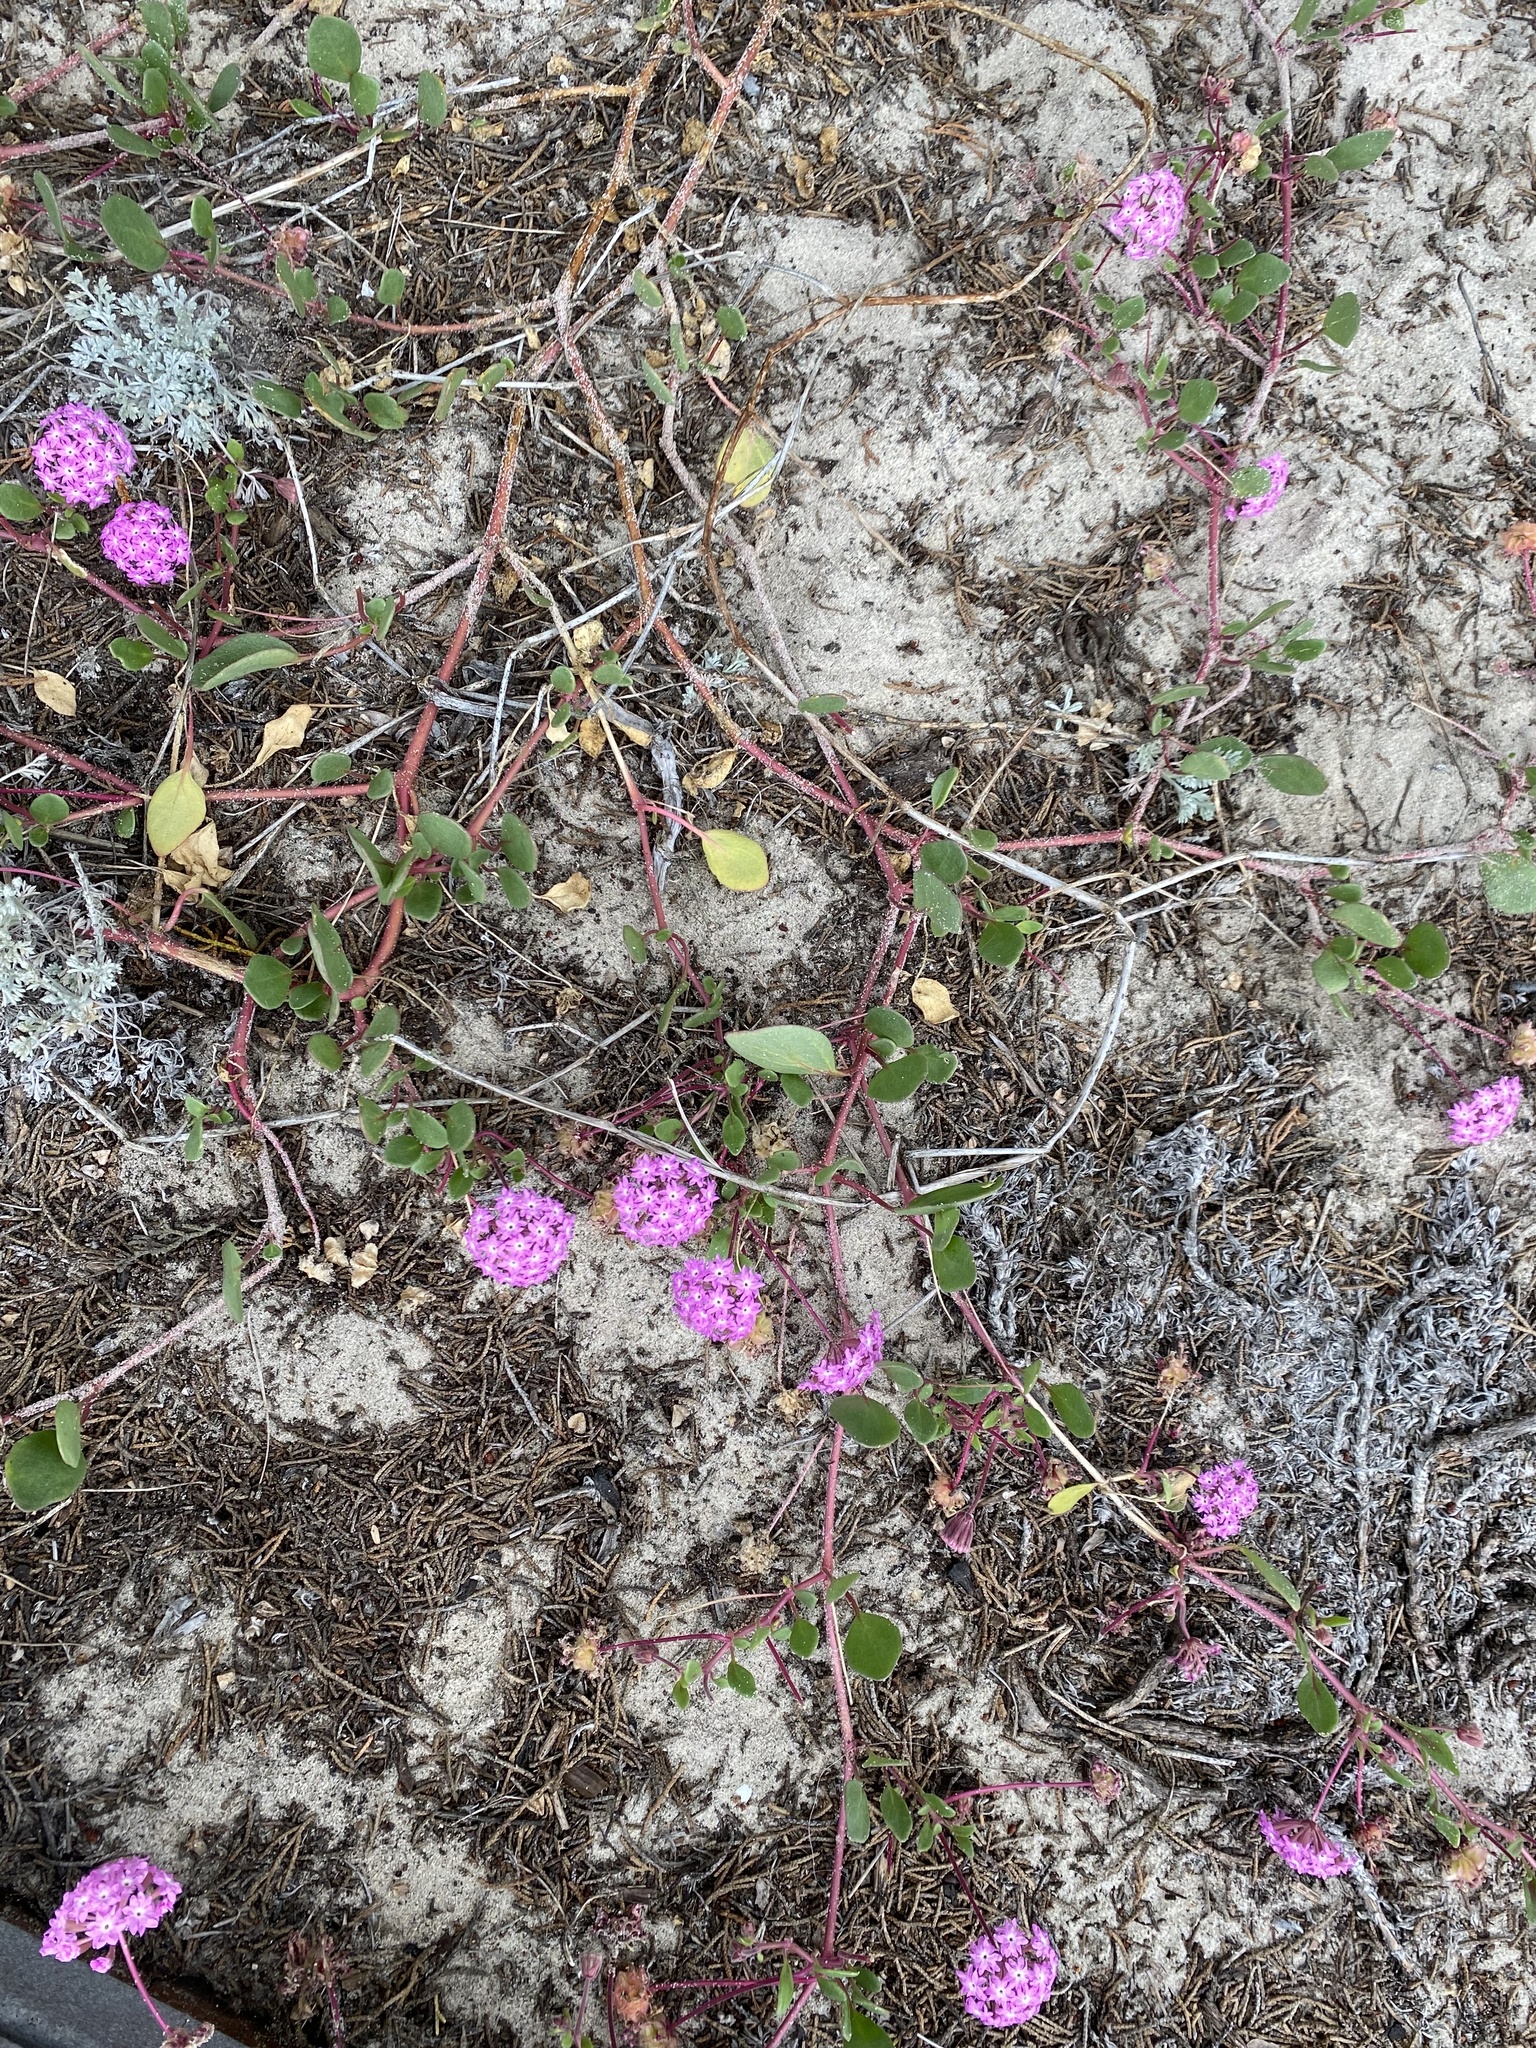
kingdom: Plantae
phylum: Tracheophyta
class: Magnoliopsida
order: Caryophyllales
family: Nyctaginaceae
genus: Abronia
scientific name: Abronia umbellata
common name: Sand-verbena
